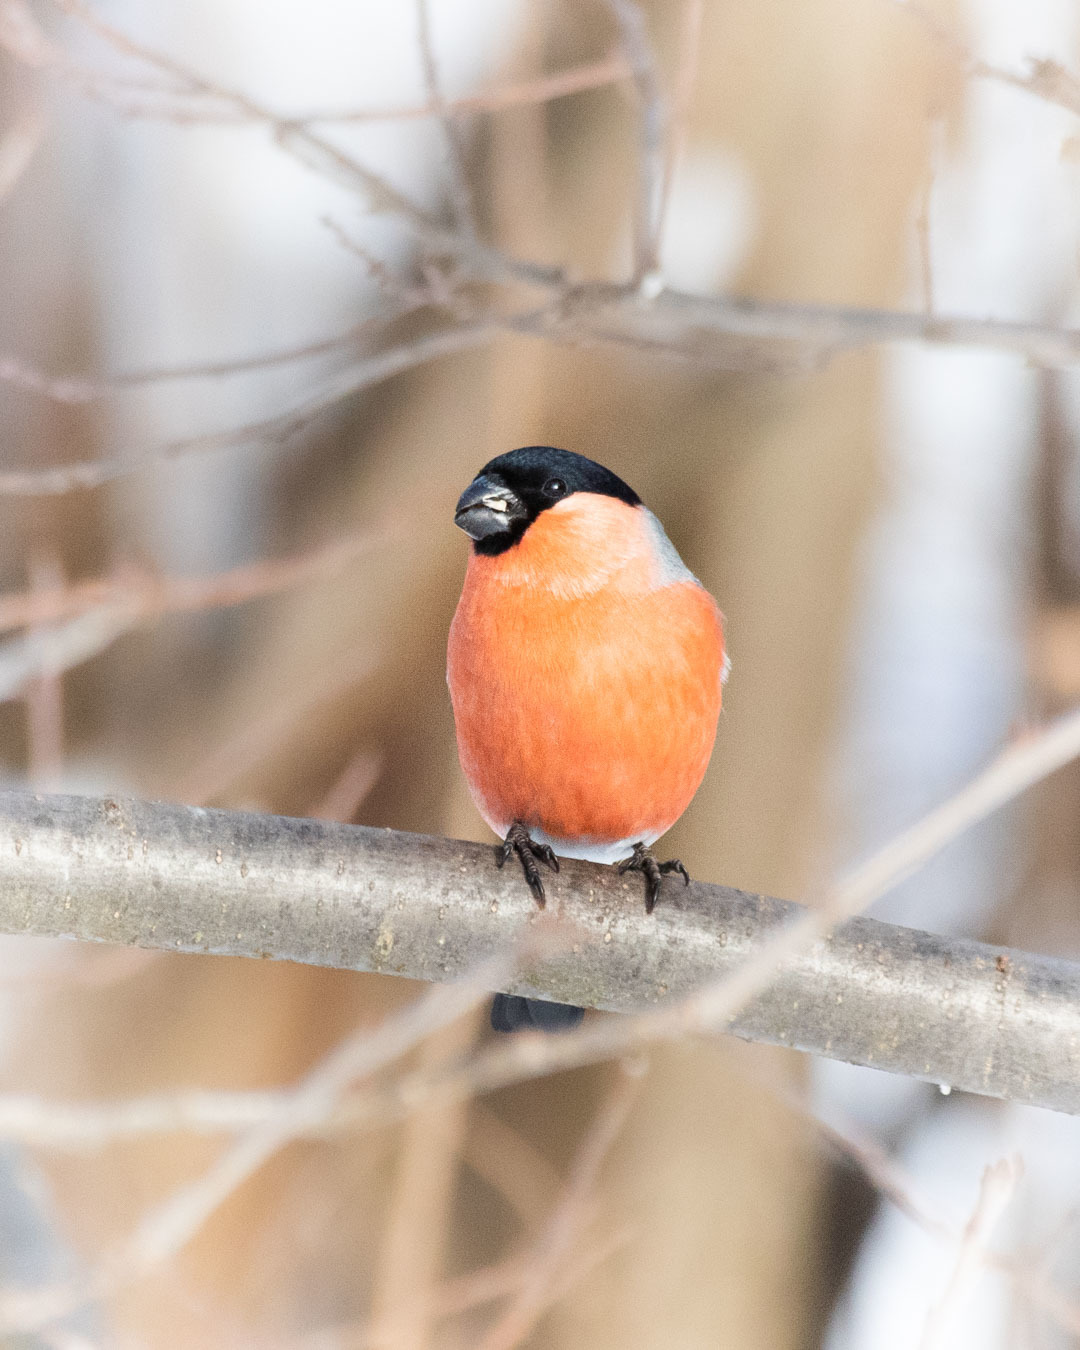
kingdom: Animalia
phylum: Chordata
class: Aves
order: Passeriformes
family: Fringillidae
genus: Pyrrhula
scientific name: Pyrrhula pyrrhula
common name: Eurasian bullfinch
